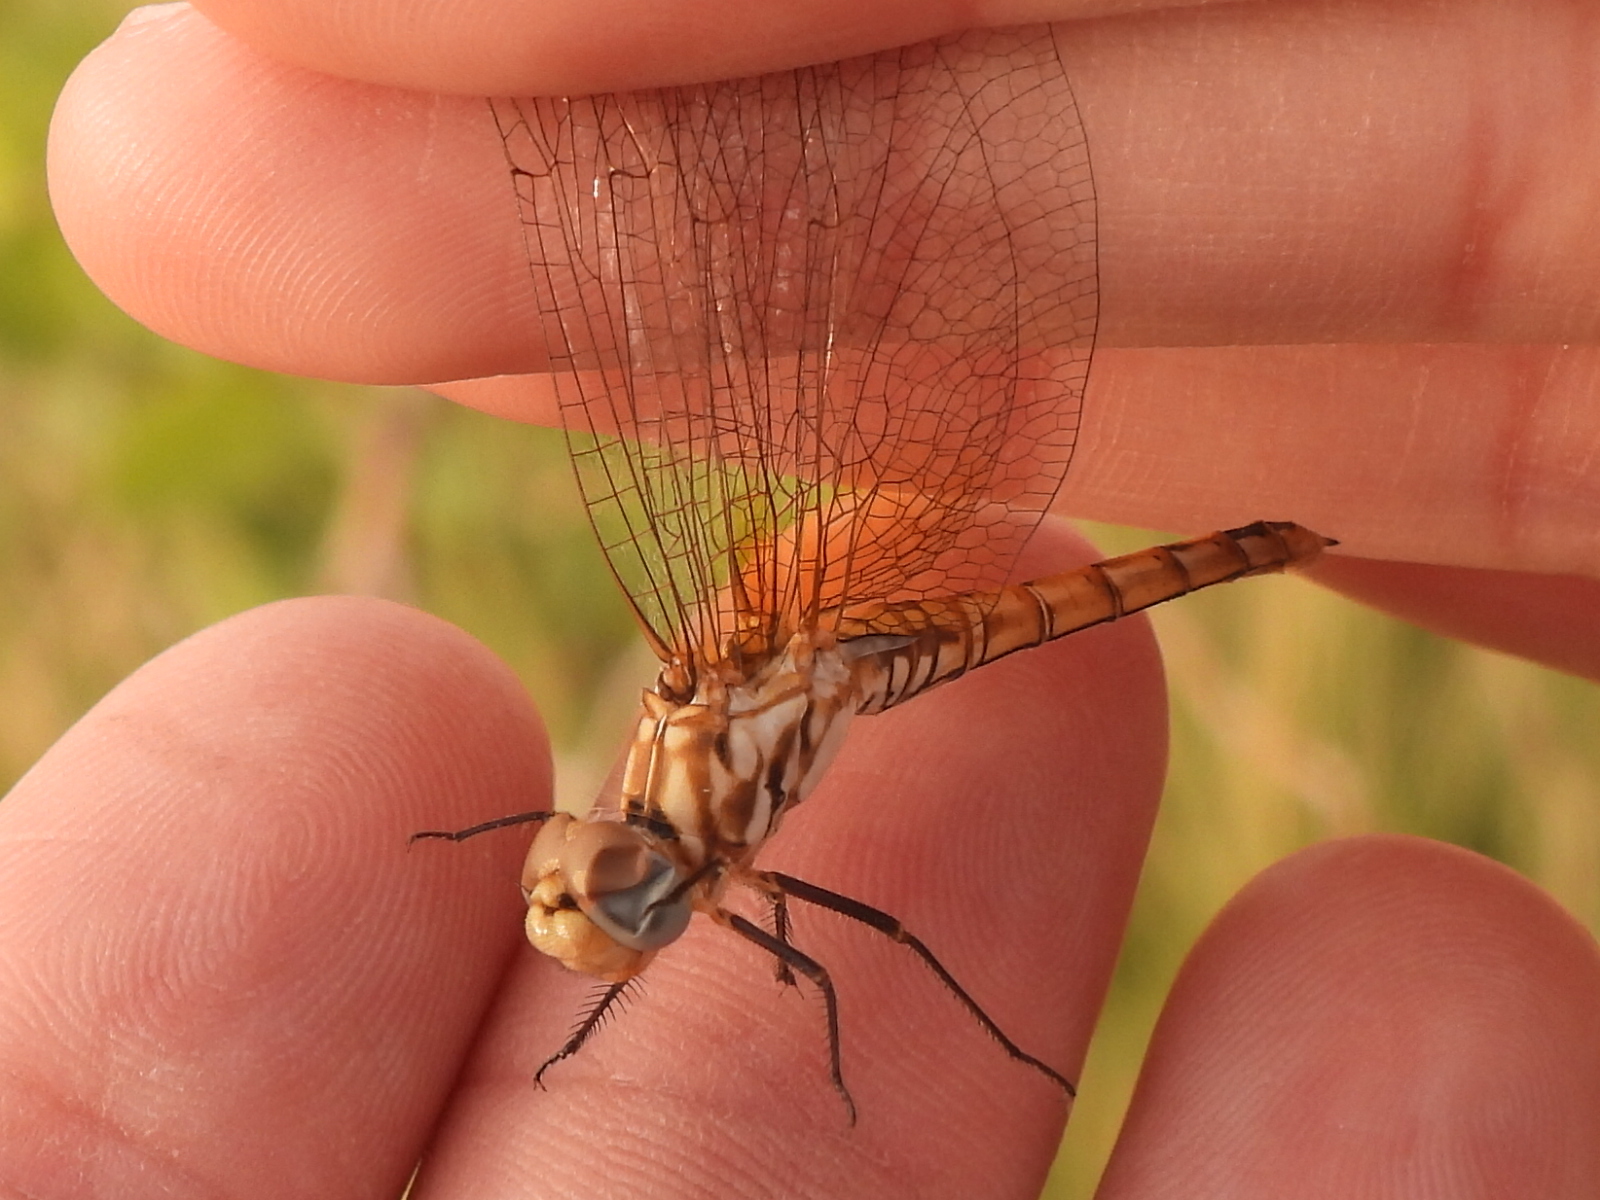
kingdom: Animalia
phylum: Arthropoda
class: Insecta
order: Odonata
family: Libellulidae
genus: Trithemis
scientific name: Trithemis annulata
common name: Violet dropwing
